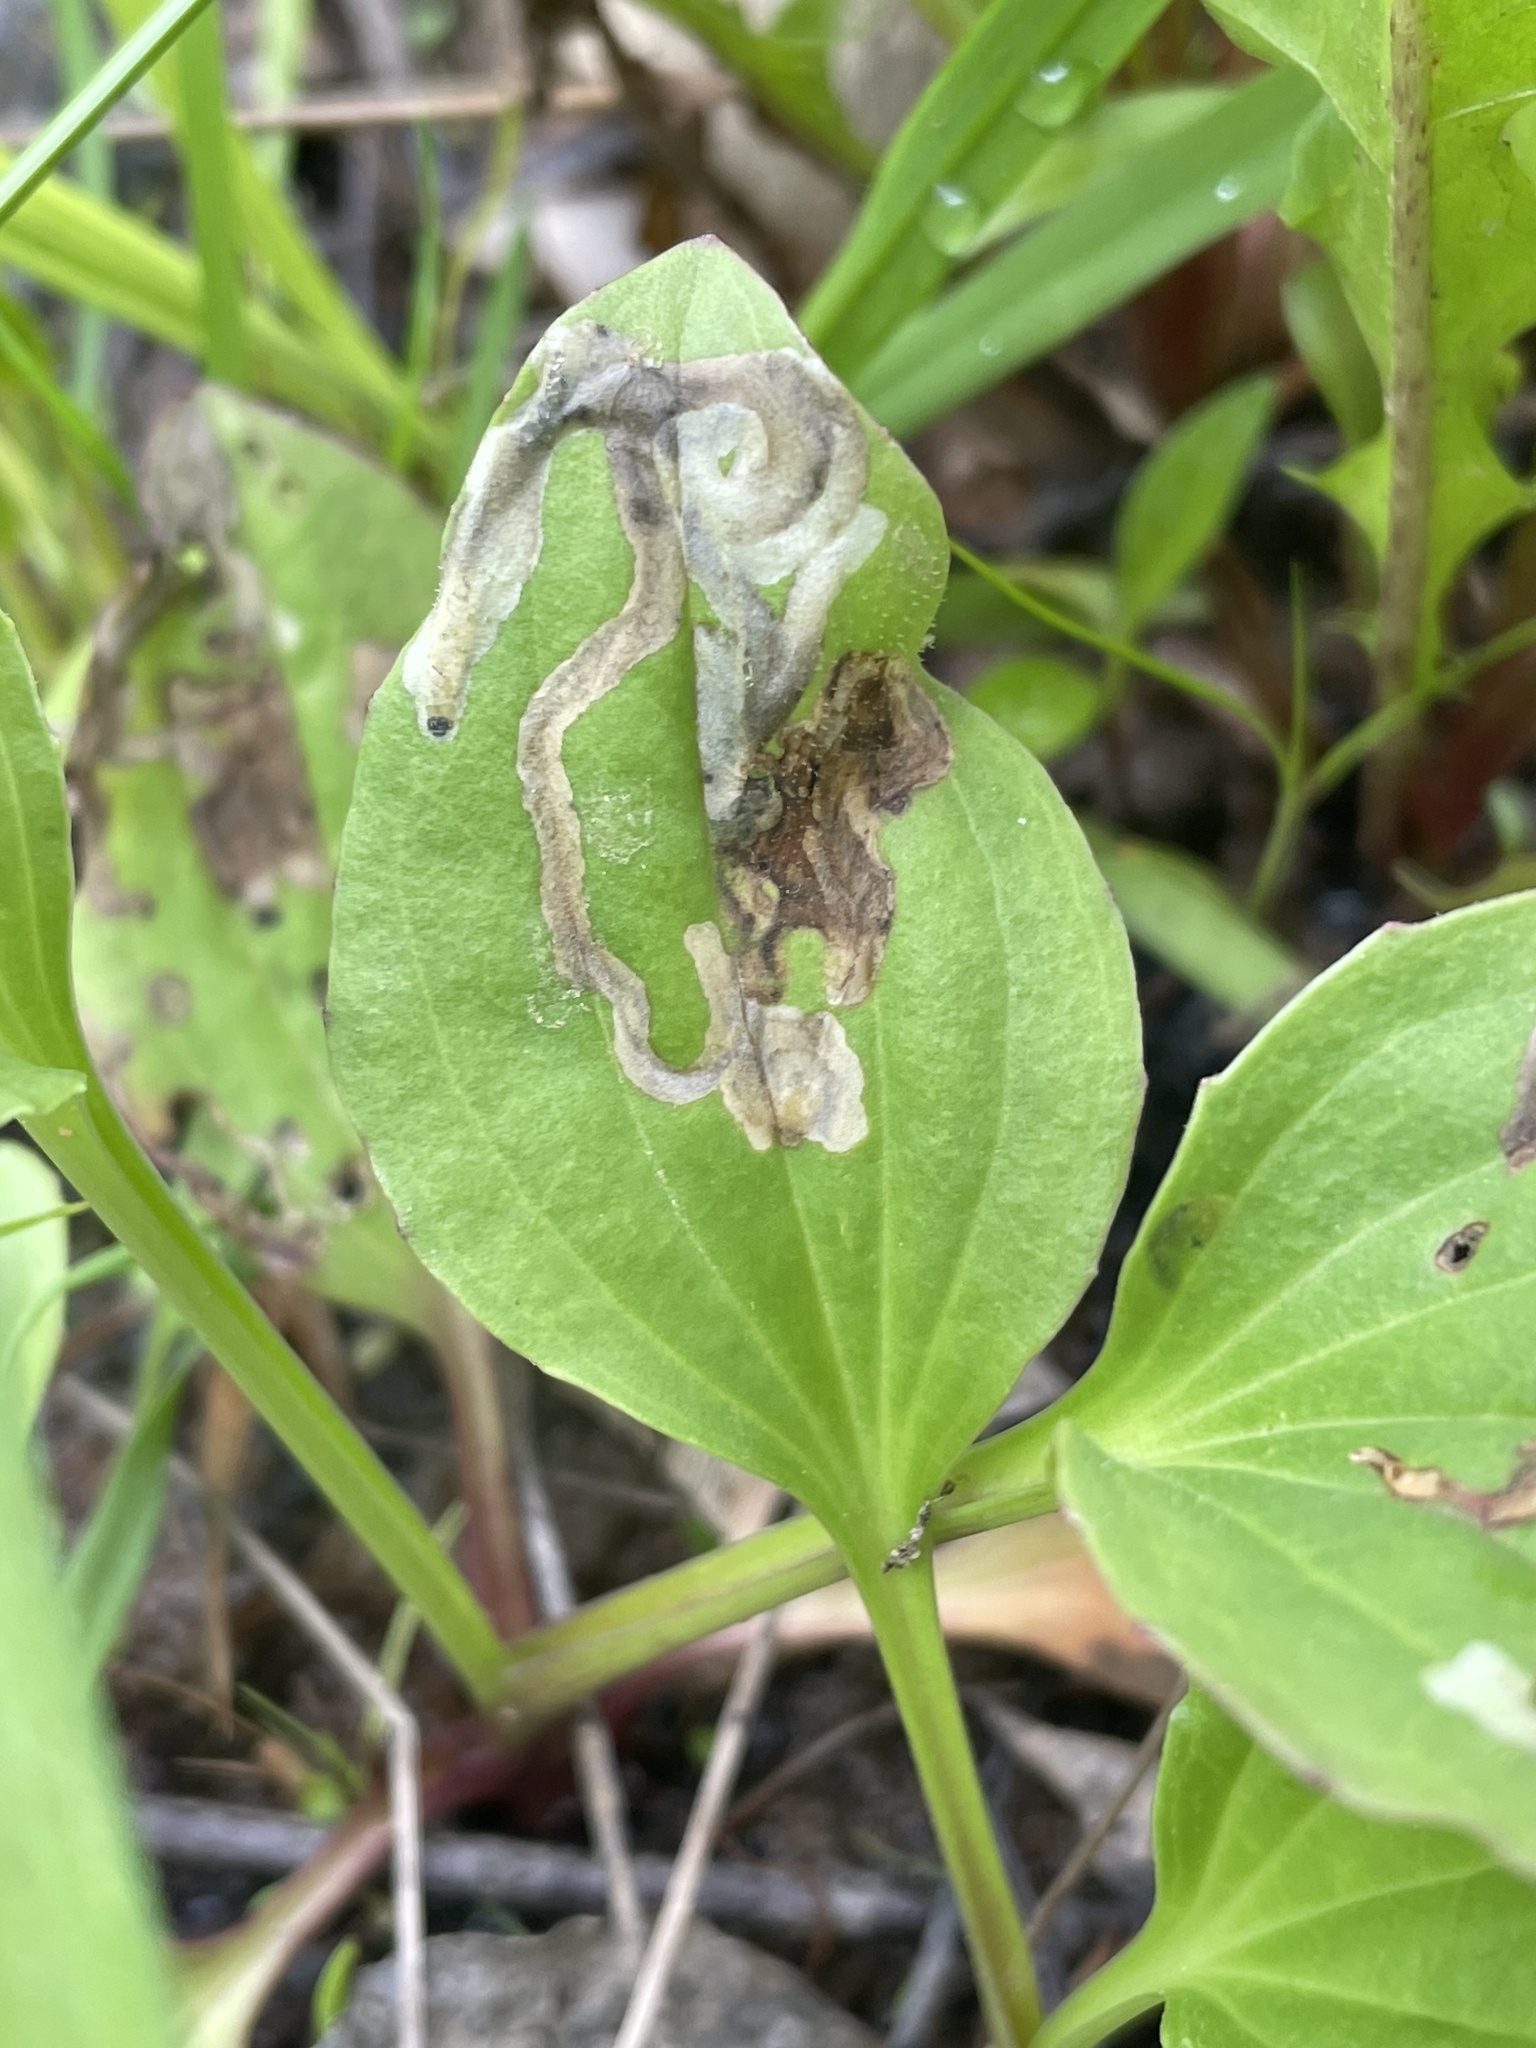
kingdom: Animalia
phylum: Arthropoda
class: Insecta
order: Coleoptera
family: Chrysomelidae
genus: Dibolia
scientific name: Dibolia borealis
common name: Northern plantain flea beetle
